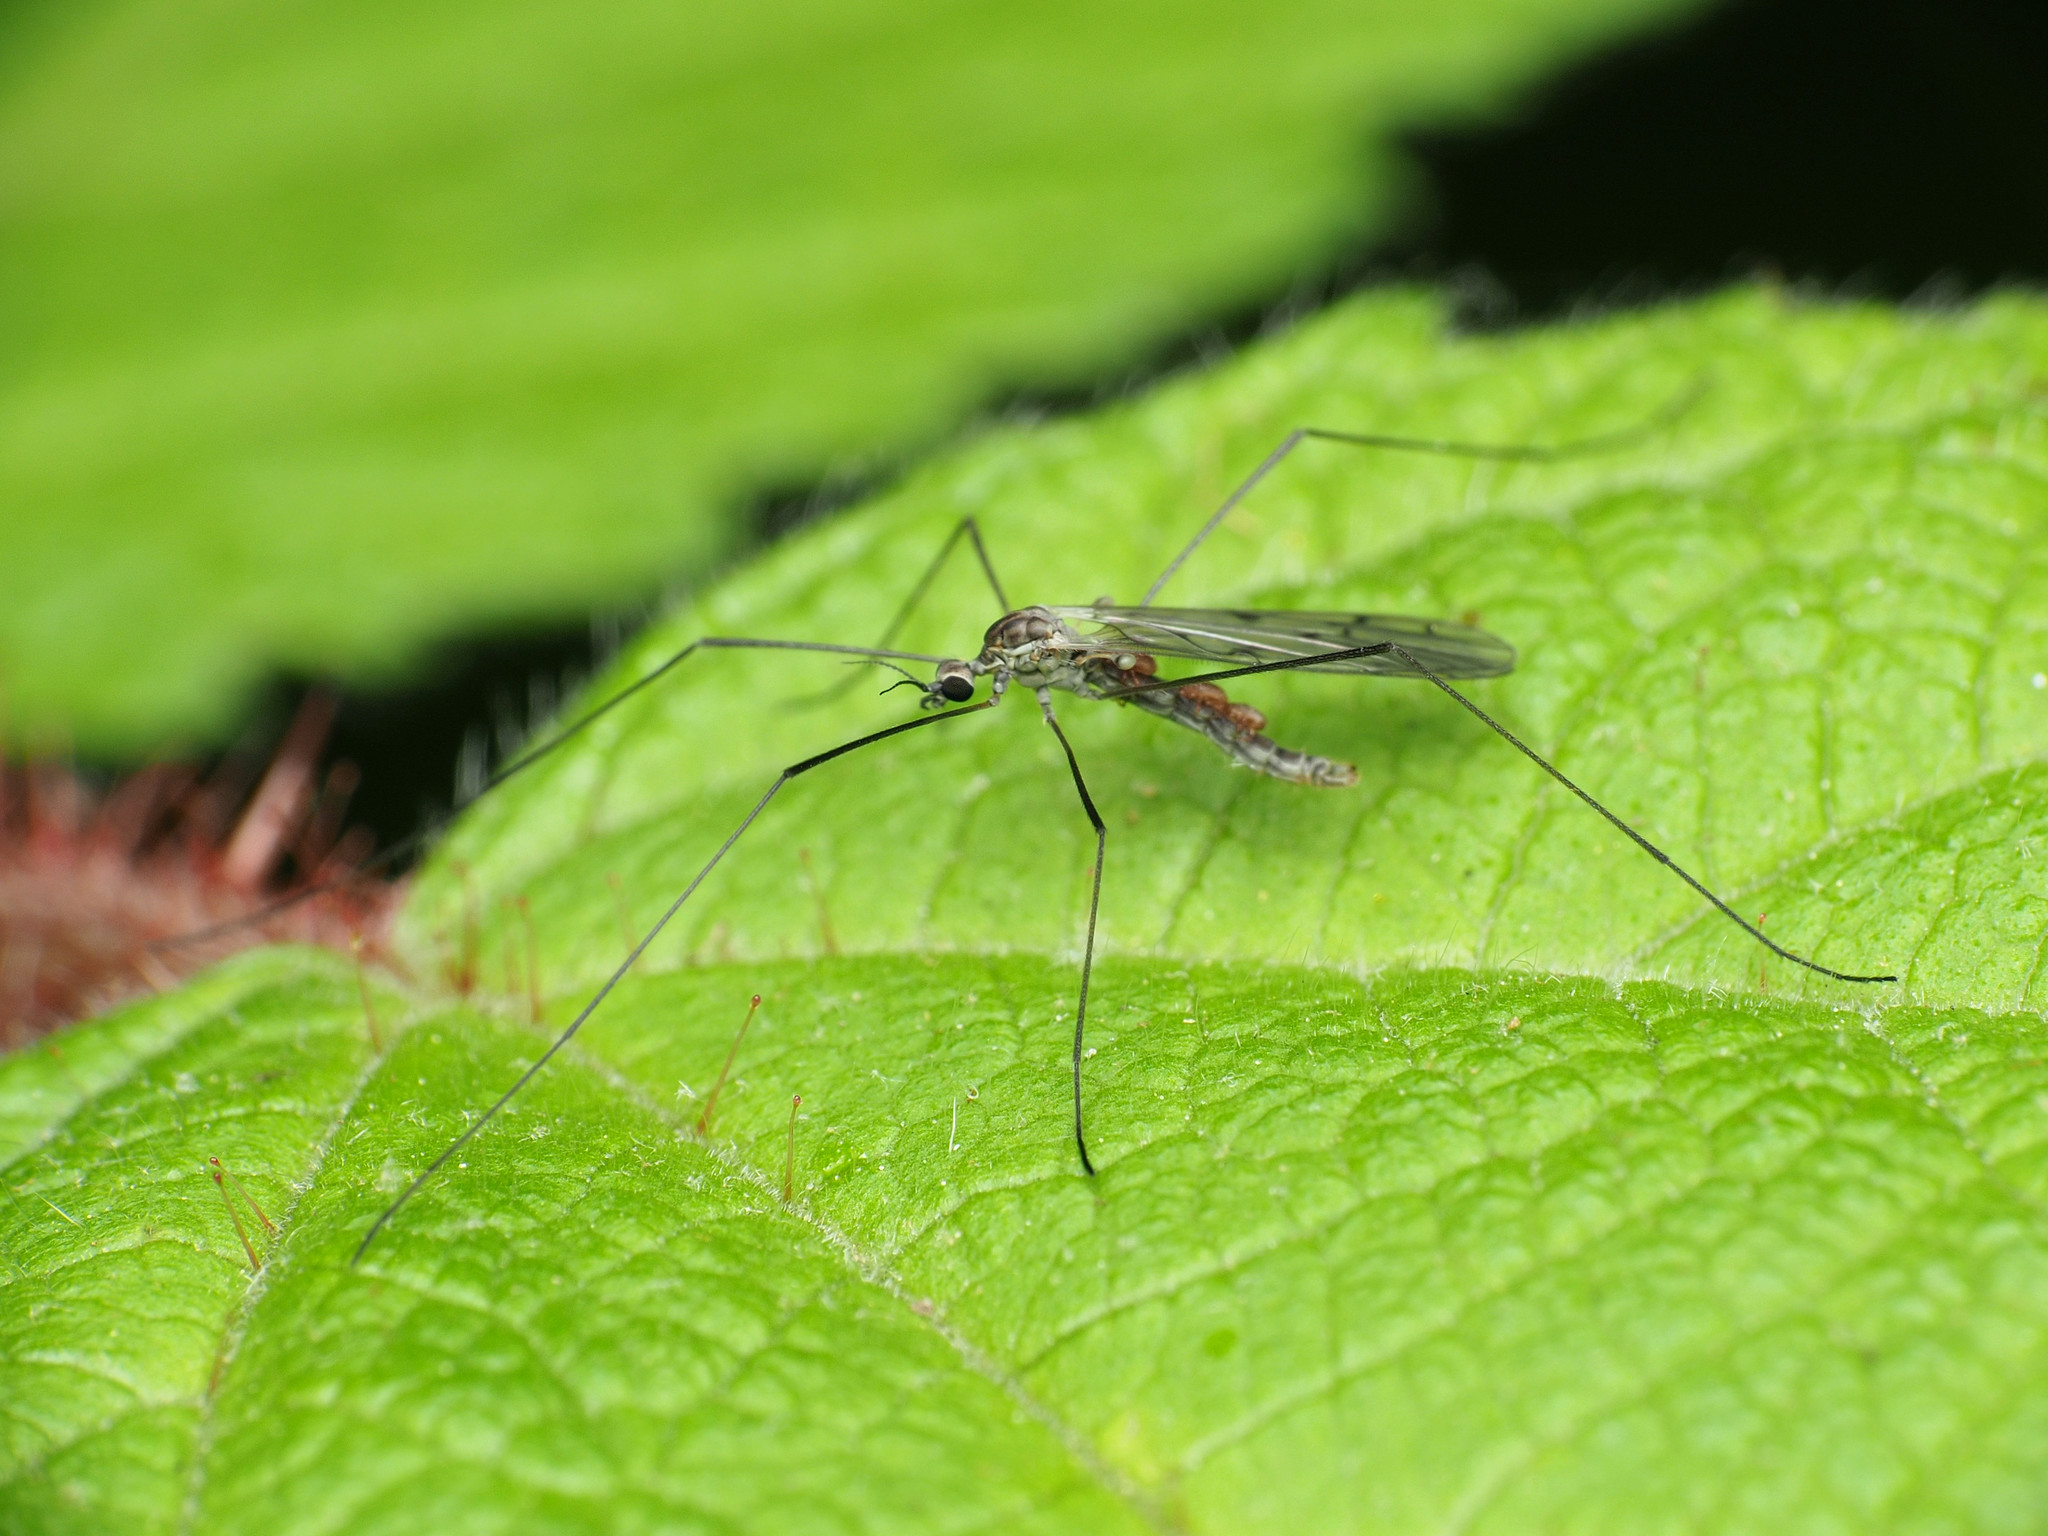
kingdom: Animalia
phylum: Arthropoda
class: Insecta
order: Diptera
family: Limoniidae
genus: Symplecta
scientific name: Symplecta cana
